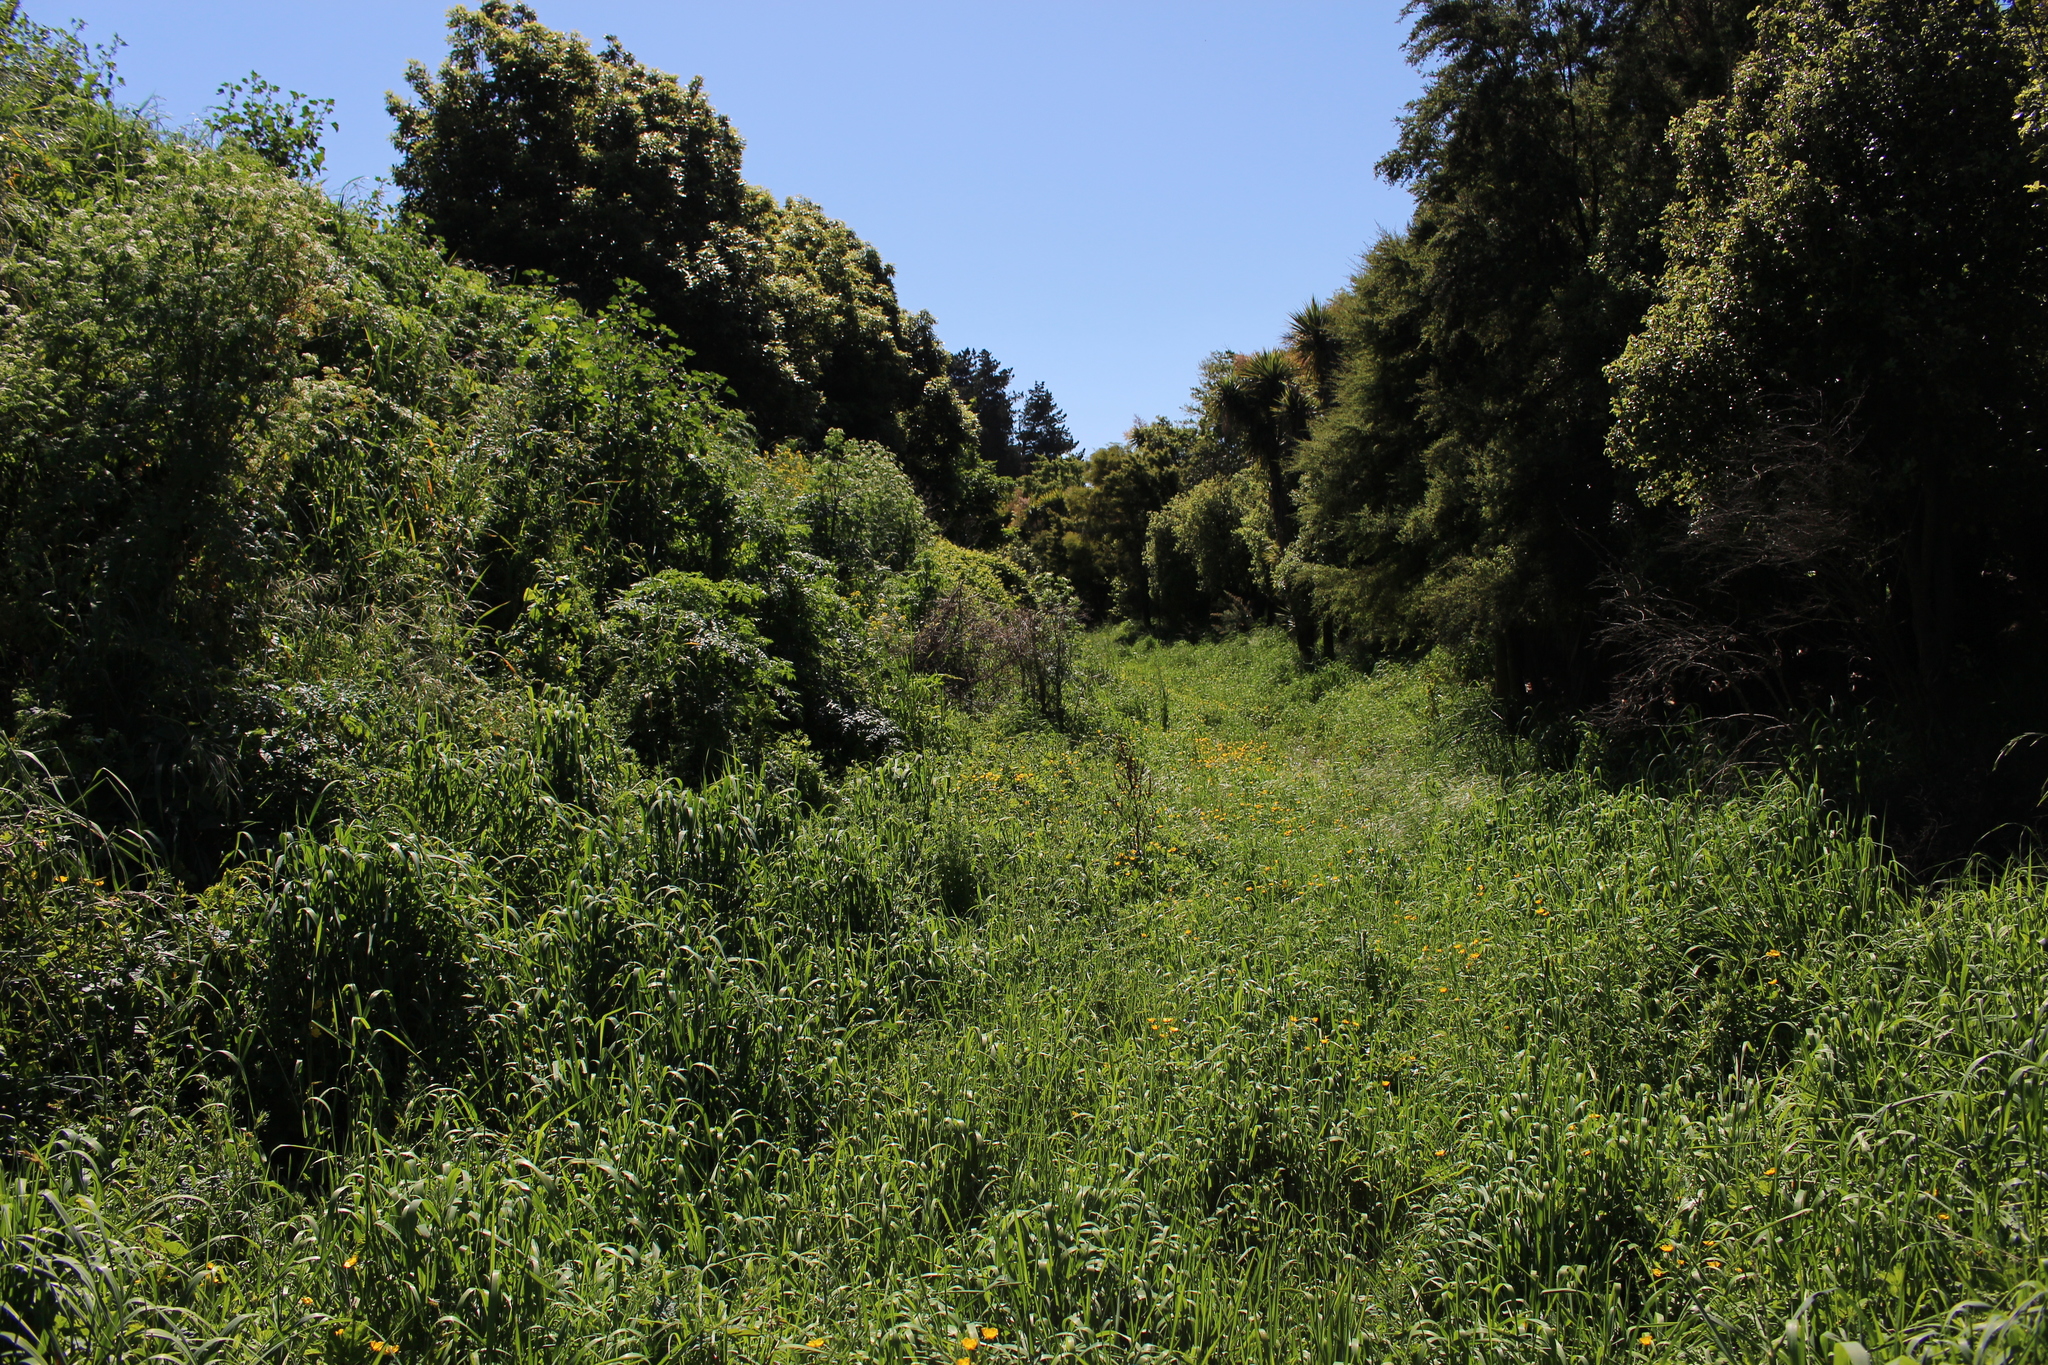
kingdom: Plantae
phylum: Tracheophyta
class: Magnoliopsida
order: Rosales
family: Rosaceae
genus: Rubus
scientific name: Rubus
